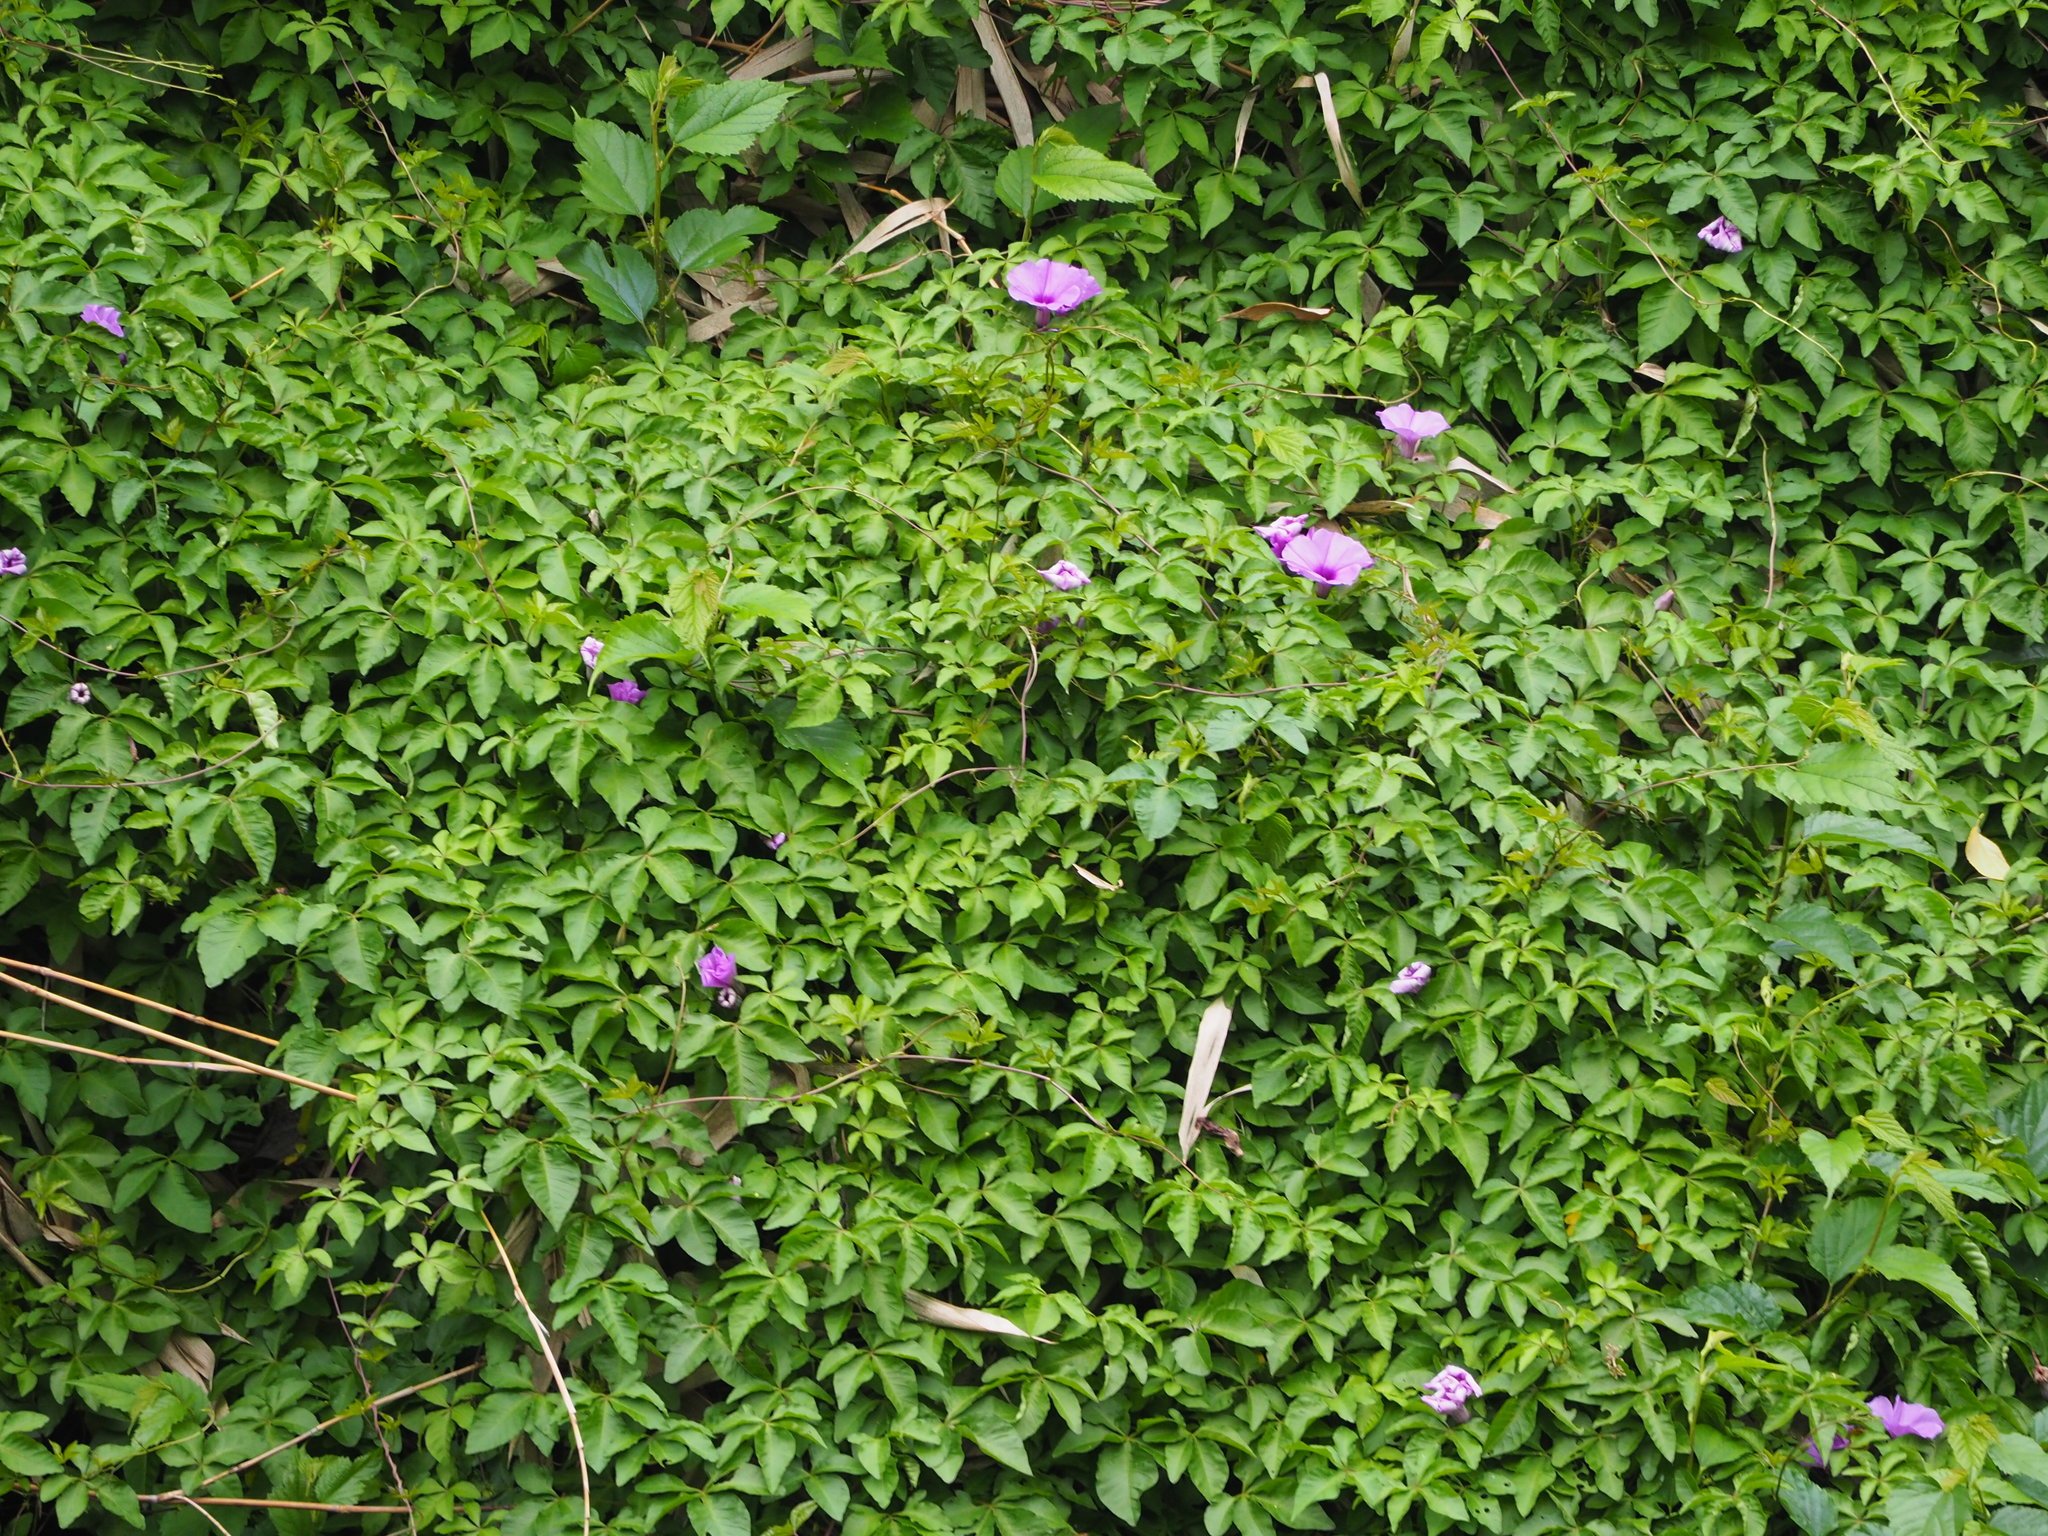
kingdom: Plantae
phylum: Tracheophyta
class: Magnoliopsida
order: Solanales
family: Convolvulaceae
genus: Ipomoea
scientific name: Ipomoea cairica
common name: Mile a minute vine
